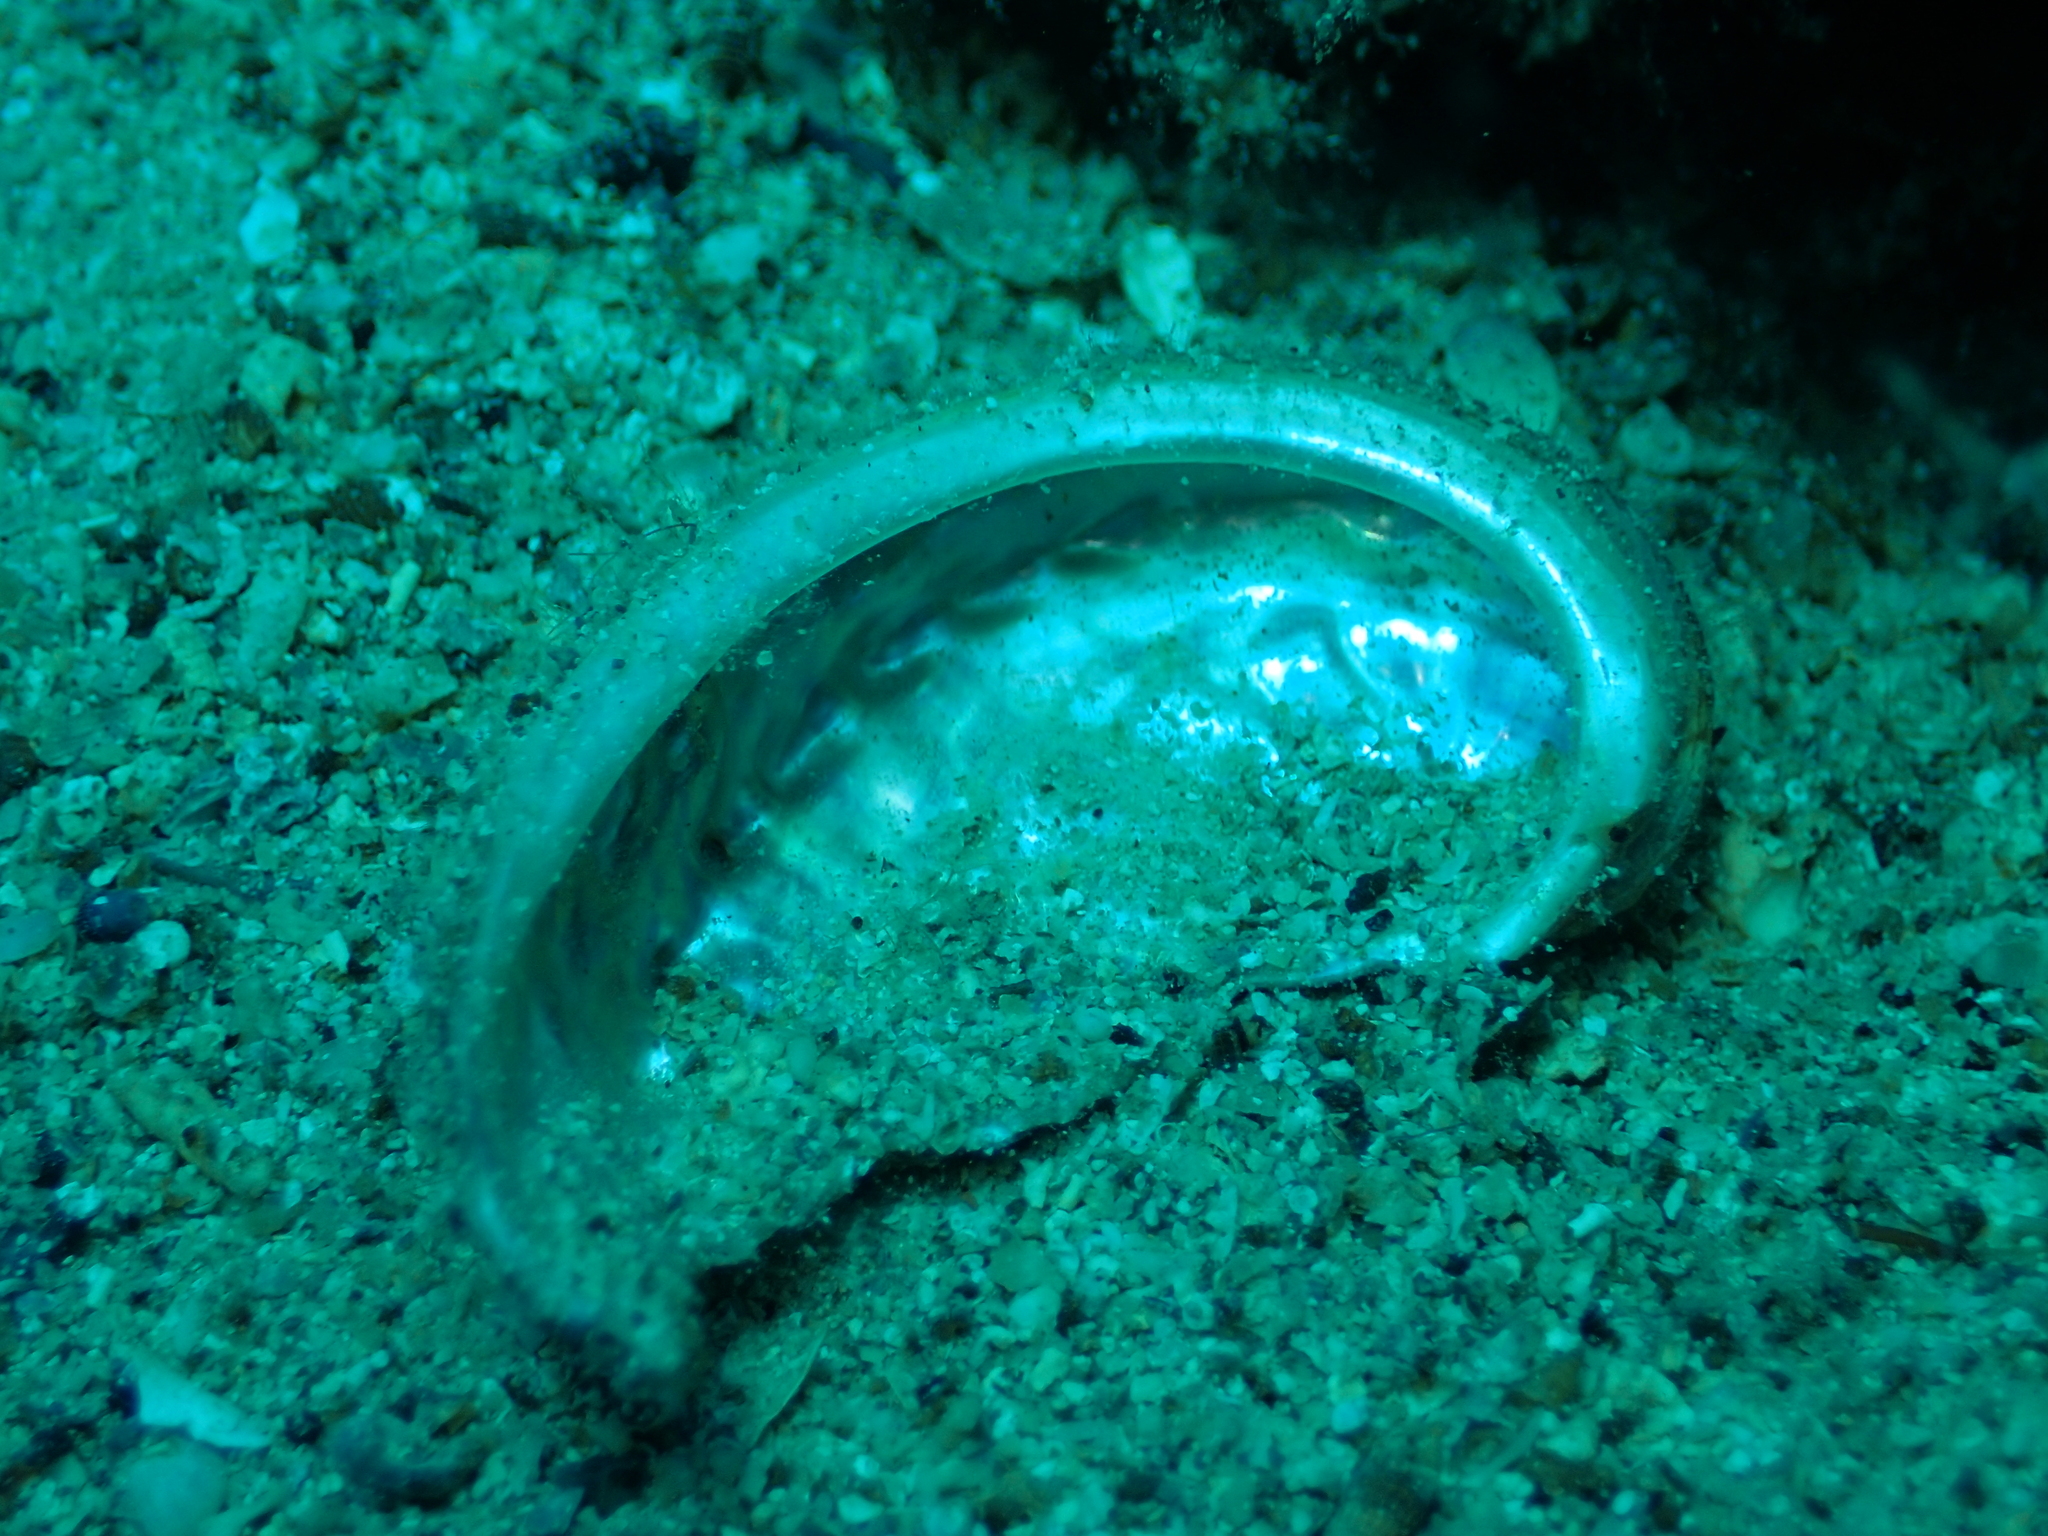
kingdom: Animalia
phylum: Mollusca
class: Gastropoda
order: Lepetellida
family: Haliotidae
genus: Haliotis
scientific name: Haliotis tuberculata
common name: Green ormer
